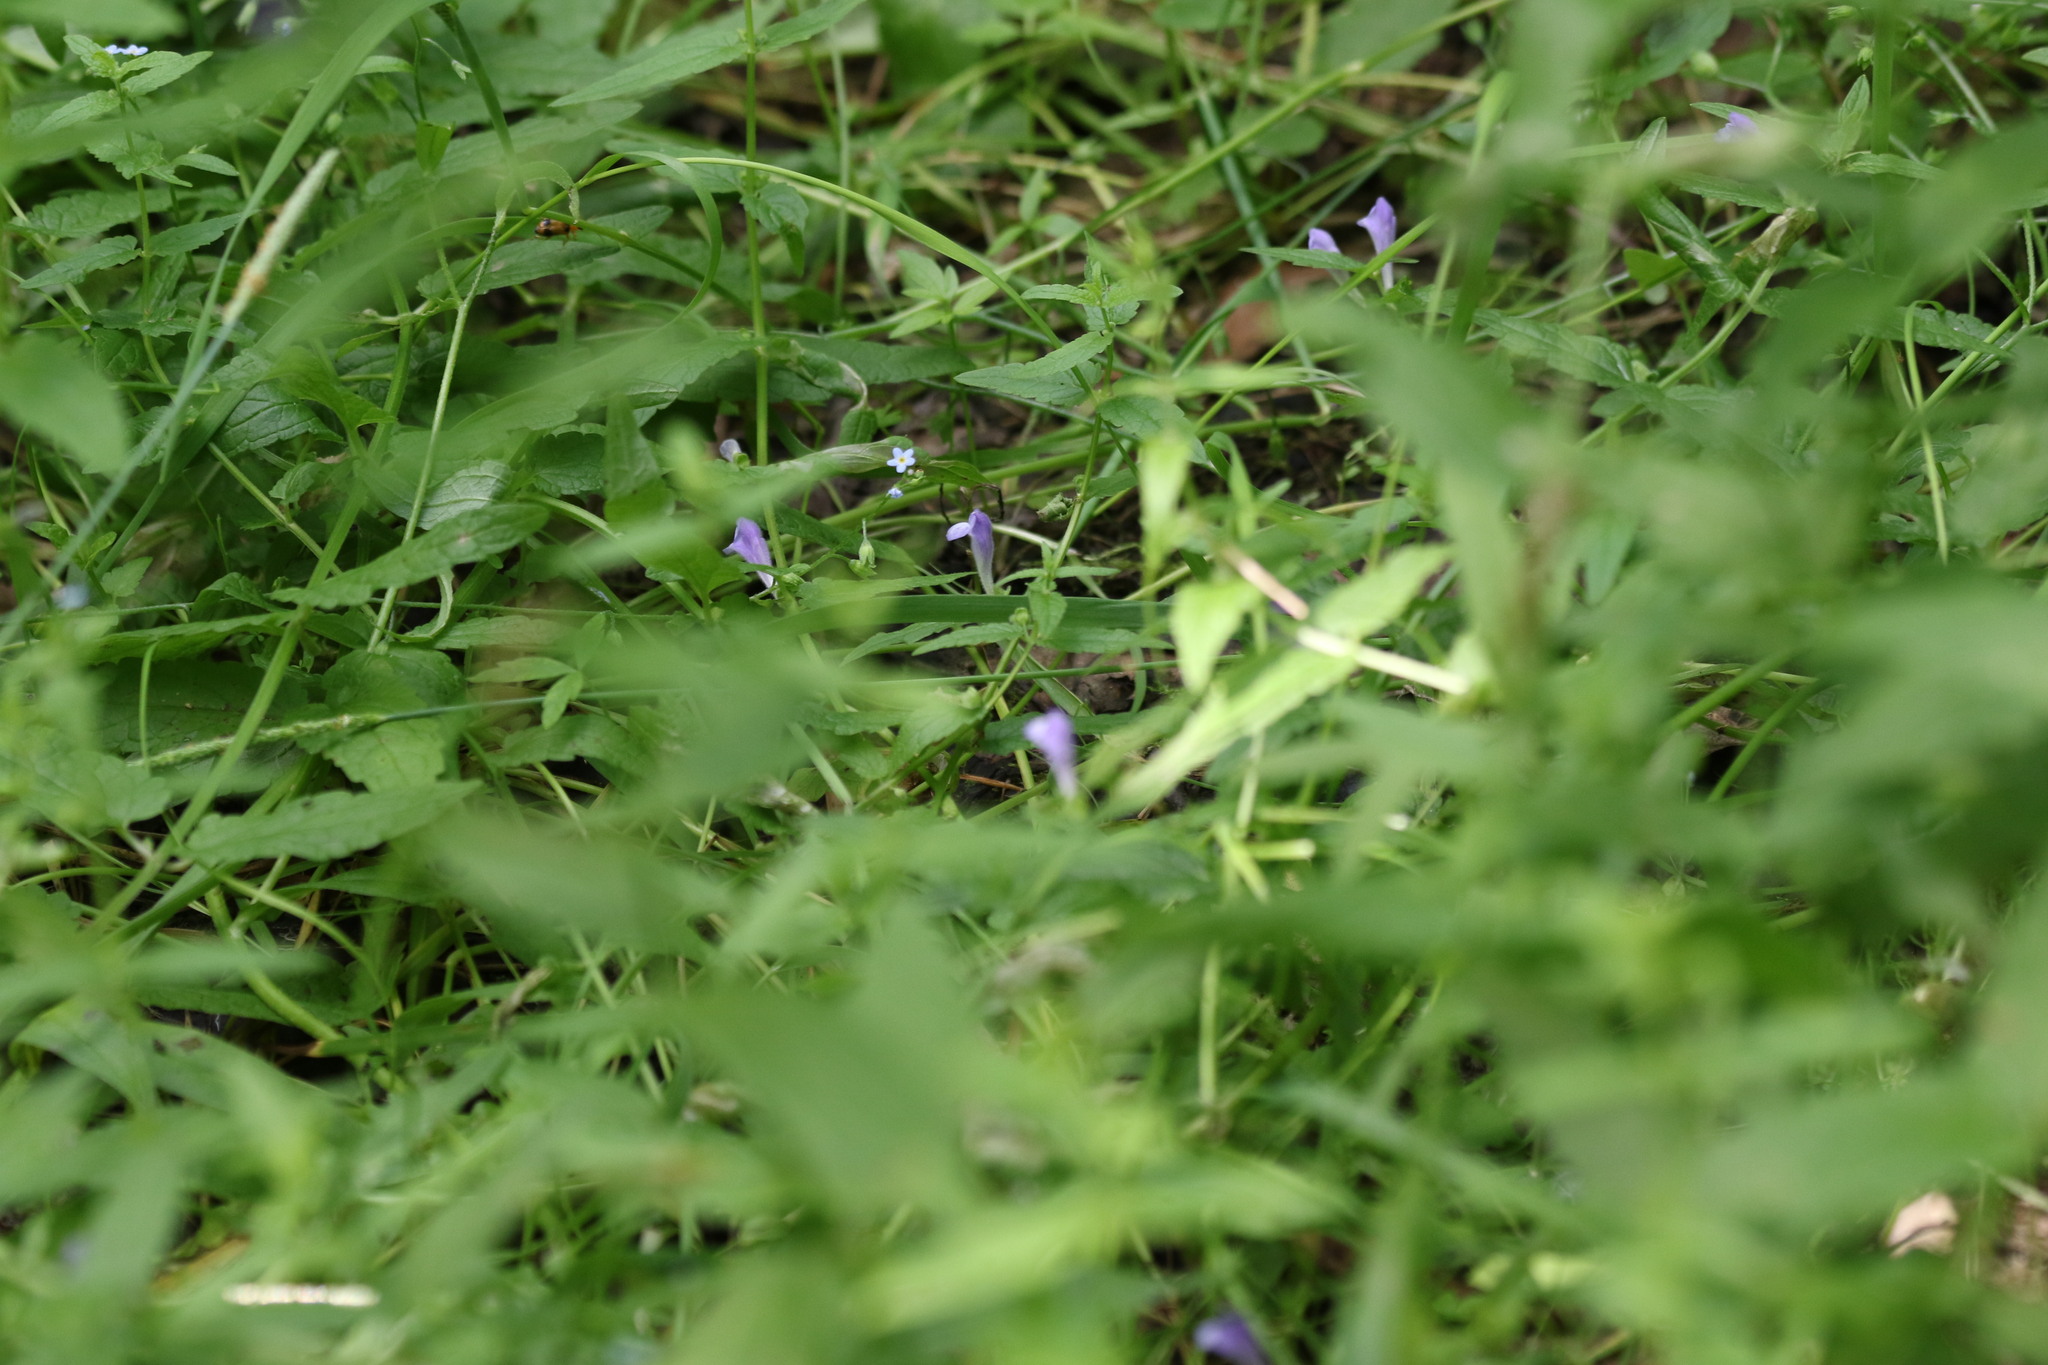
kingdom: Plantae
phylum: Tracheophyta
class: Magnoliopsida
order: Lamiales
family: Lamiaceae
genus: Scutellaria
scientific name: Scutellaria galericulata
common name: Skullcap
